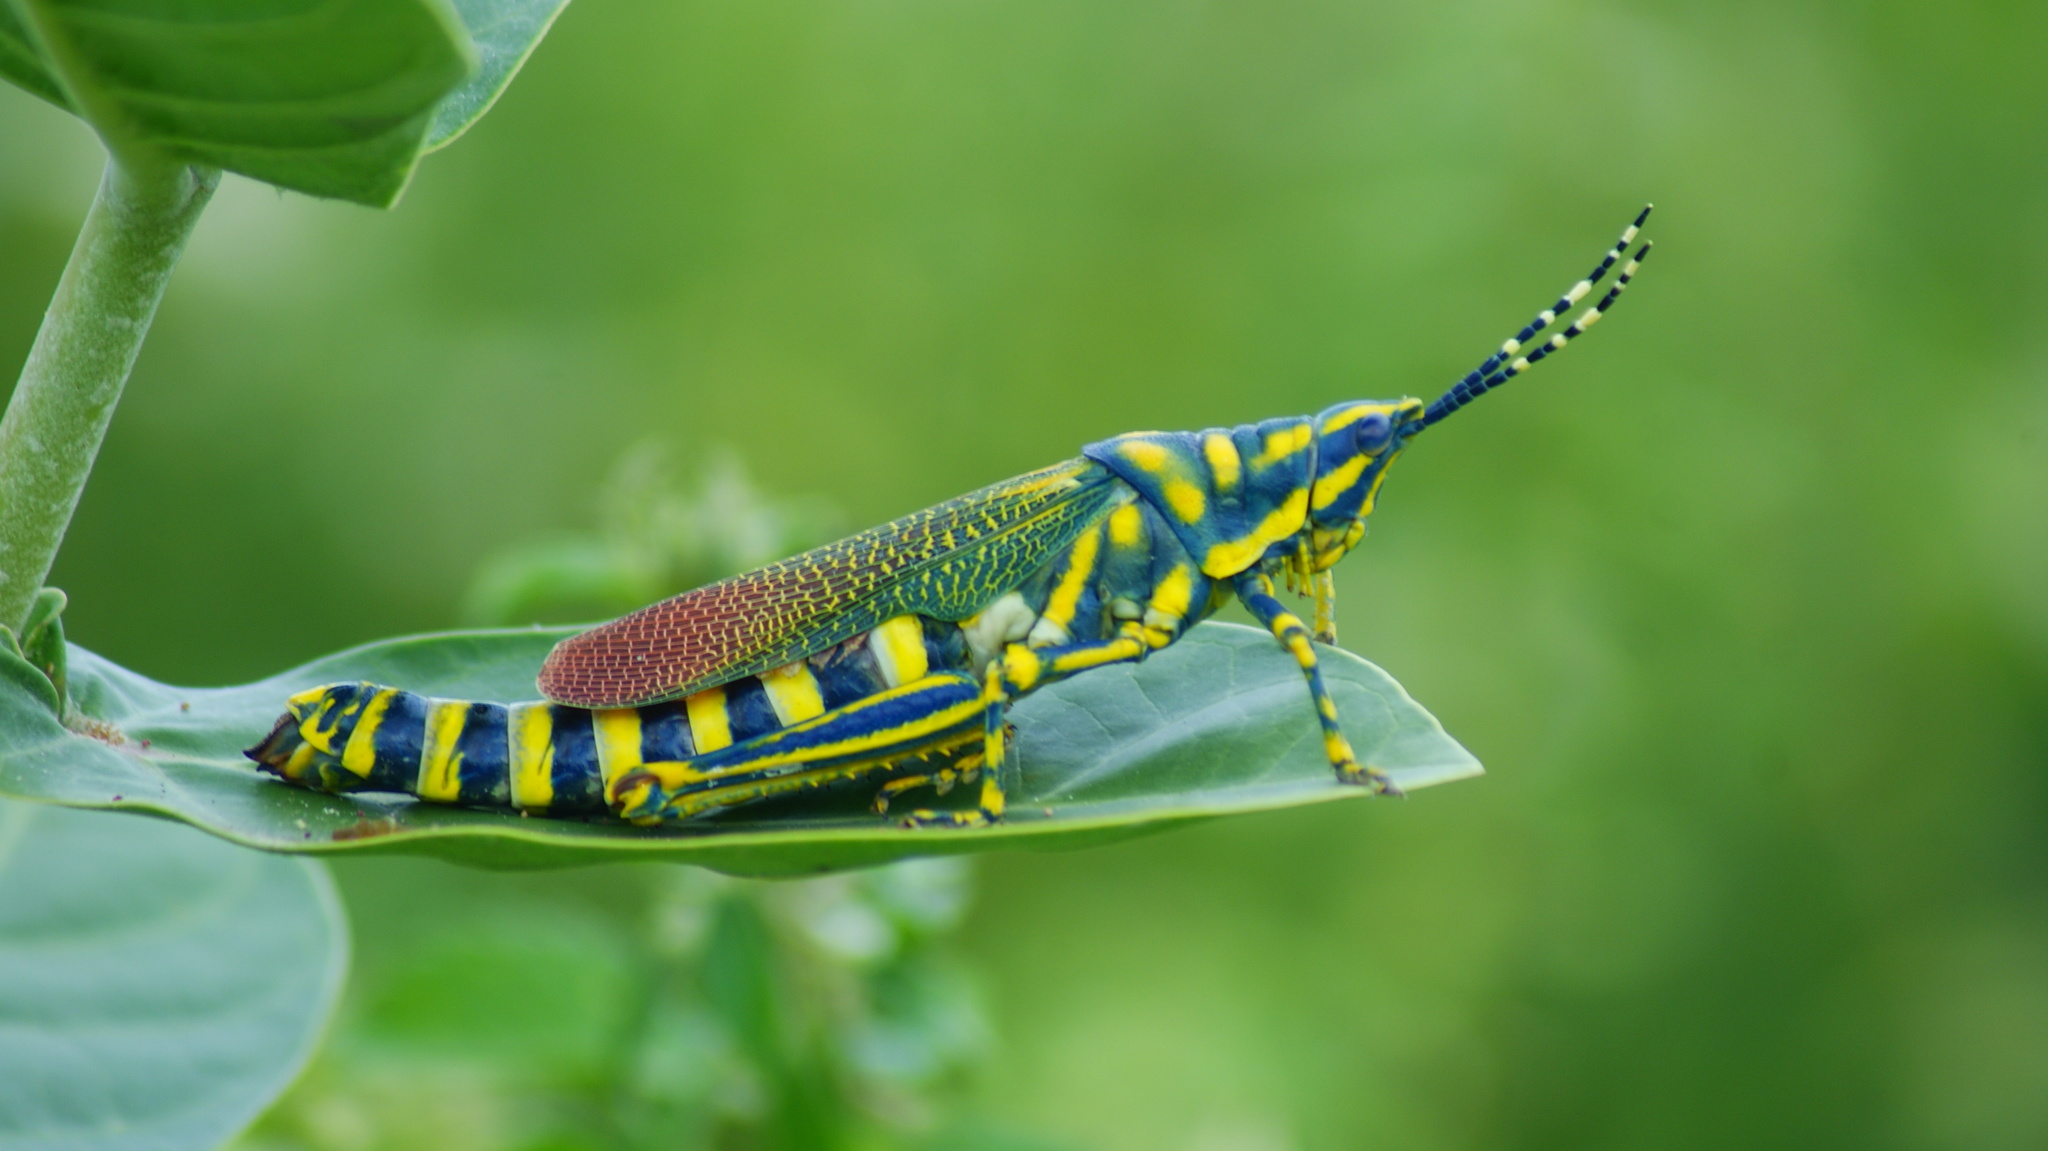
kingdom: Animalia
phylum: Arthropoda
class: Insecta
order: Orthoptera
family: Pyrgomorphidae
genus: Poekilocerus
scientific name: Poekilocerus pictus
